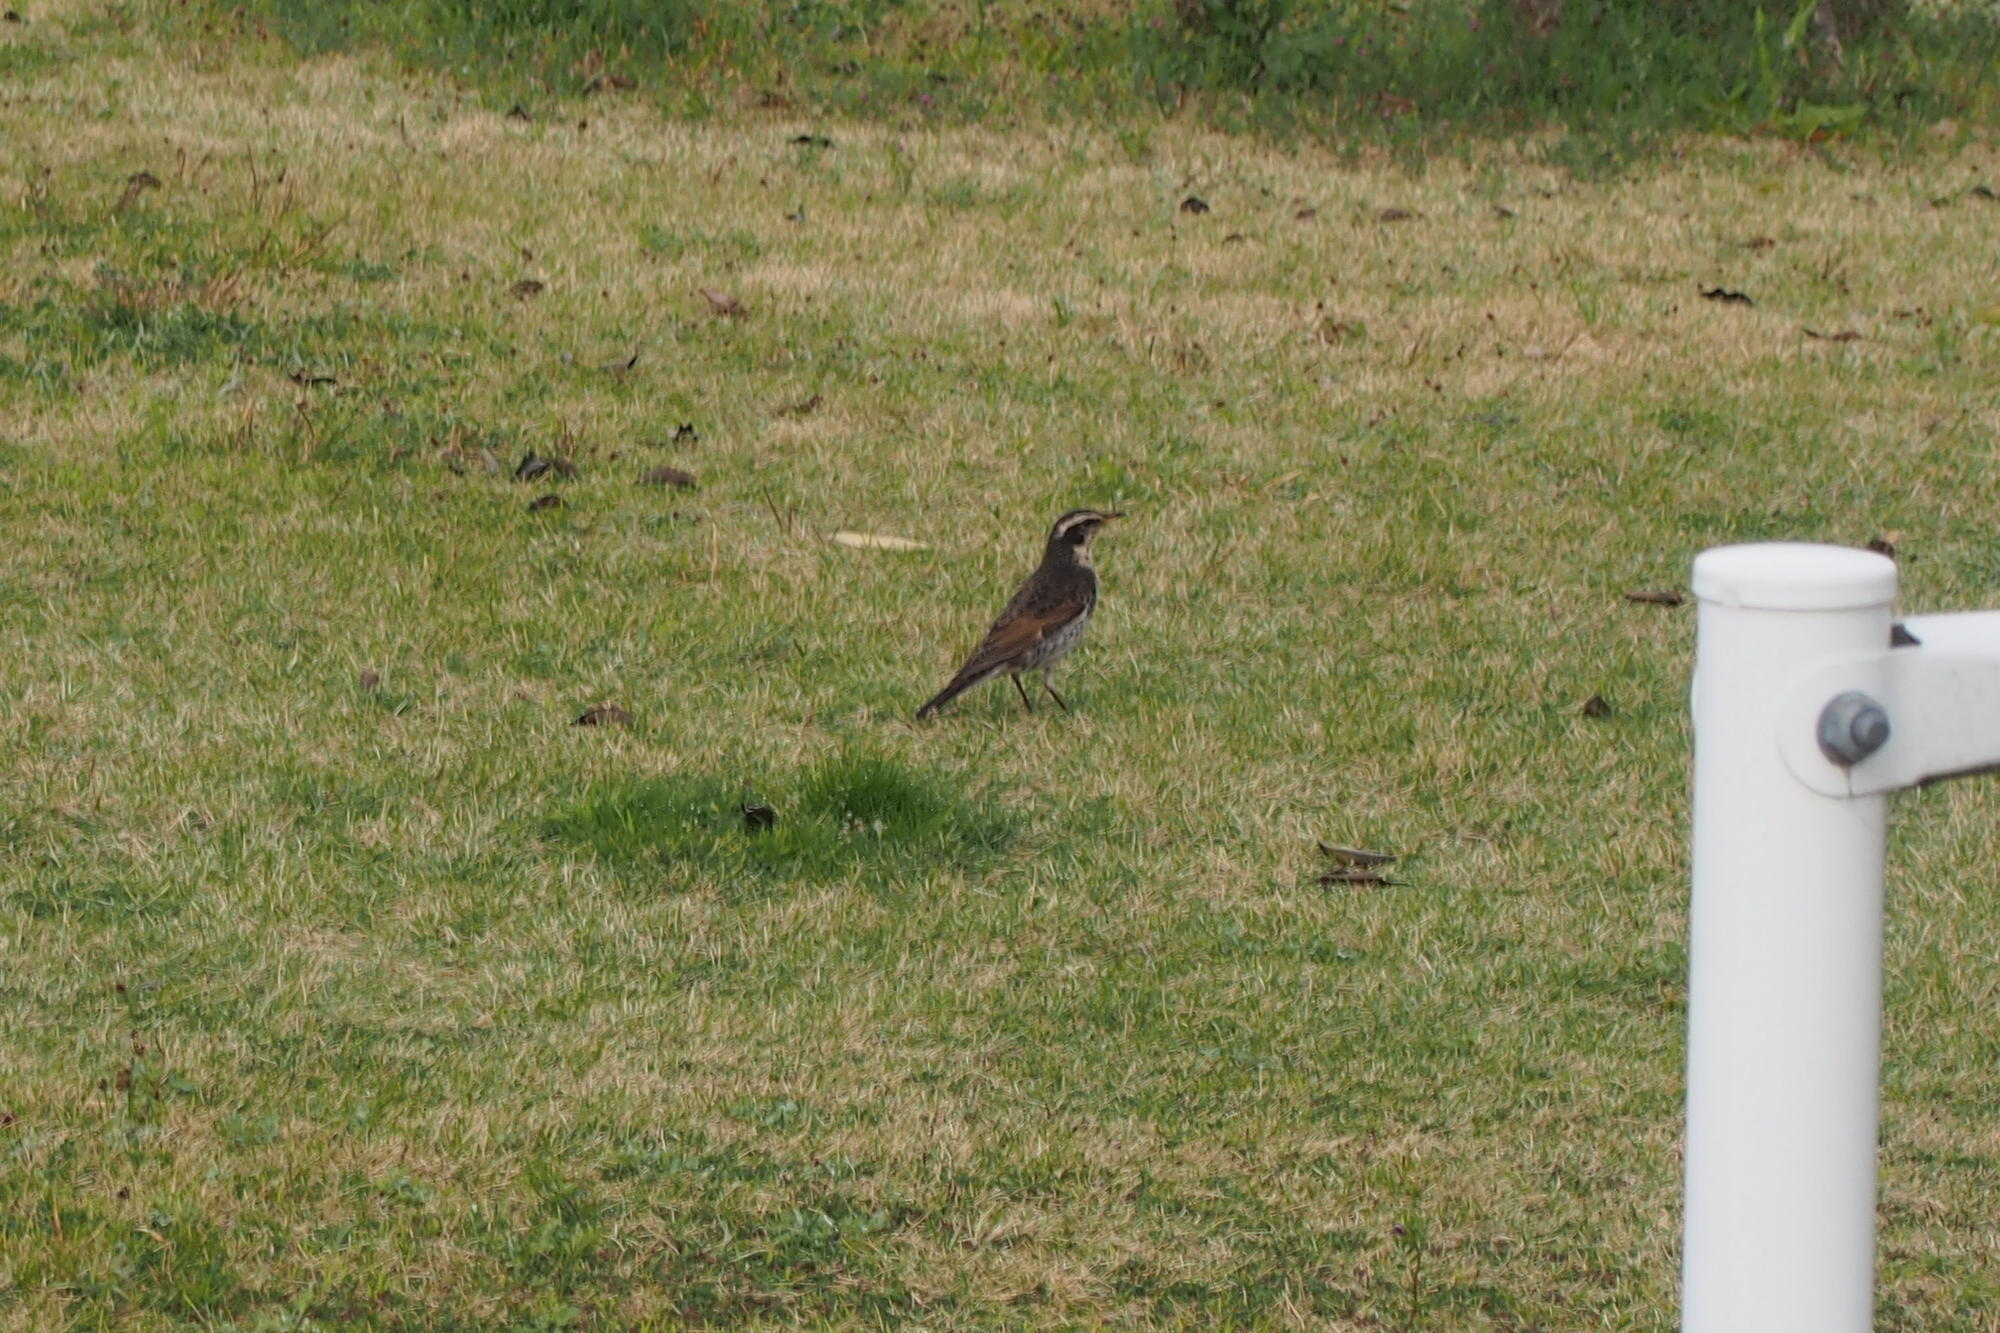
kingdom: Animalia
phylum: Chordata
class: Aves
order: Passeriformes
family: Turdidae
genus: Turdus
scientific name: Turdus eunomus
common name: Dusky thrush
